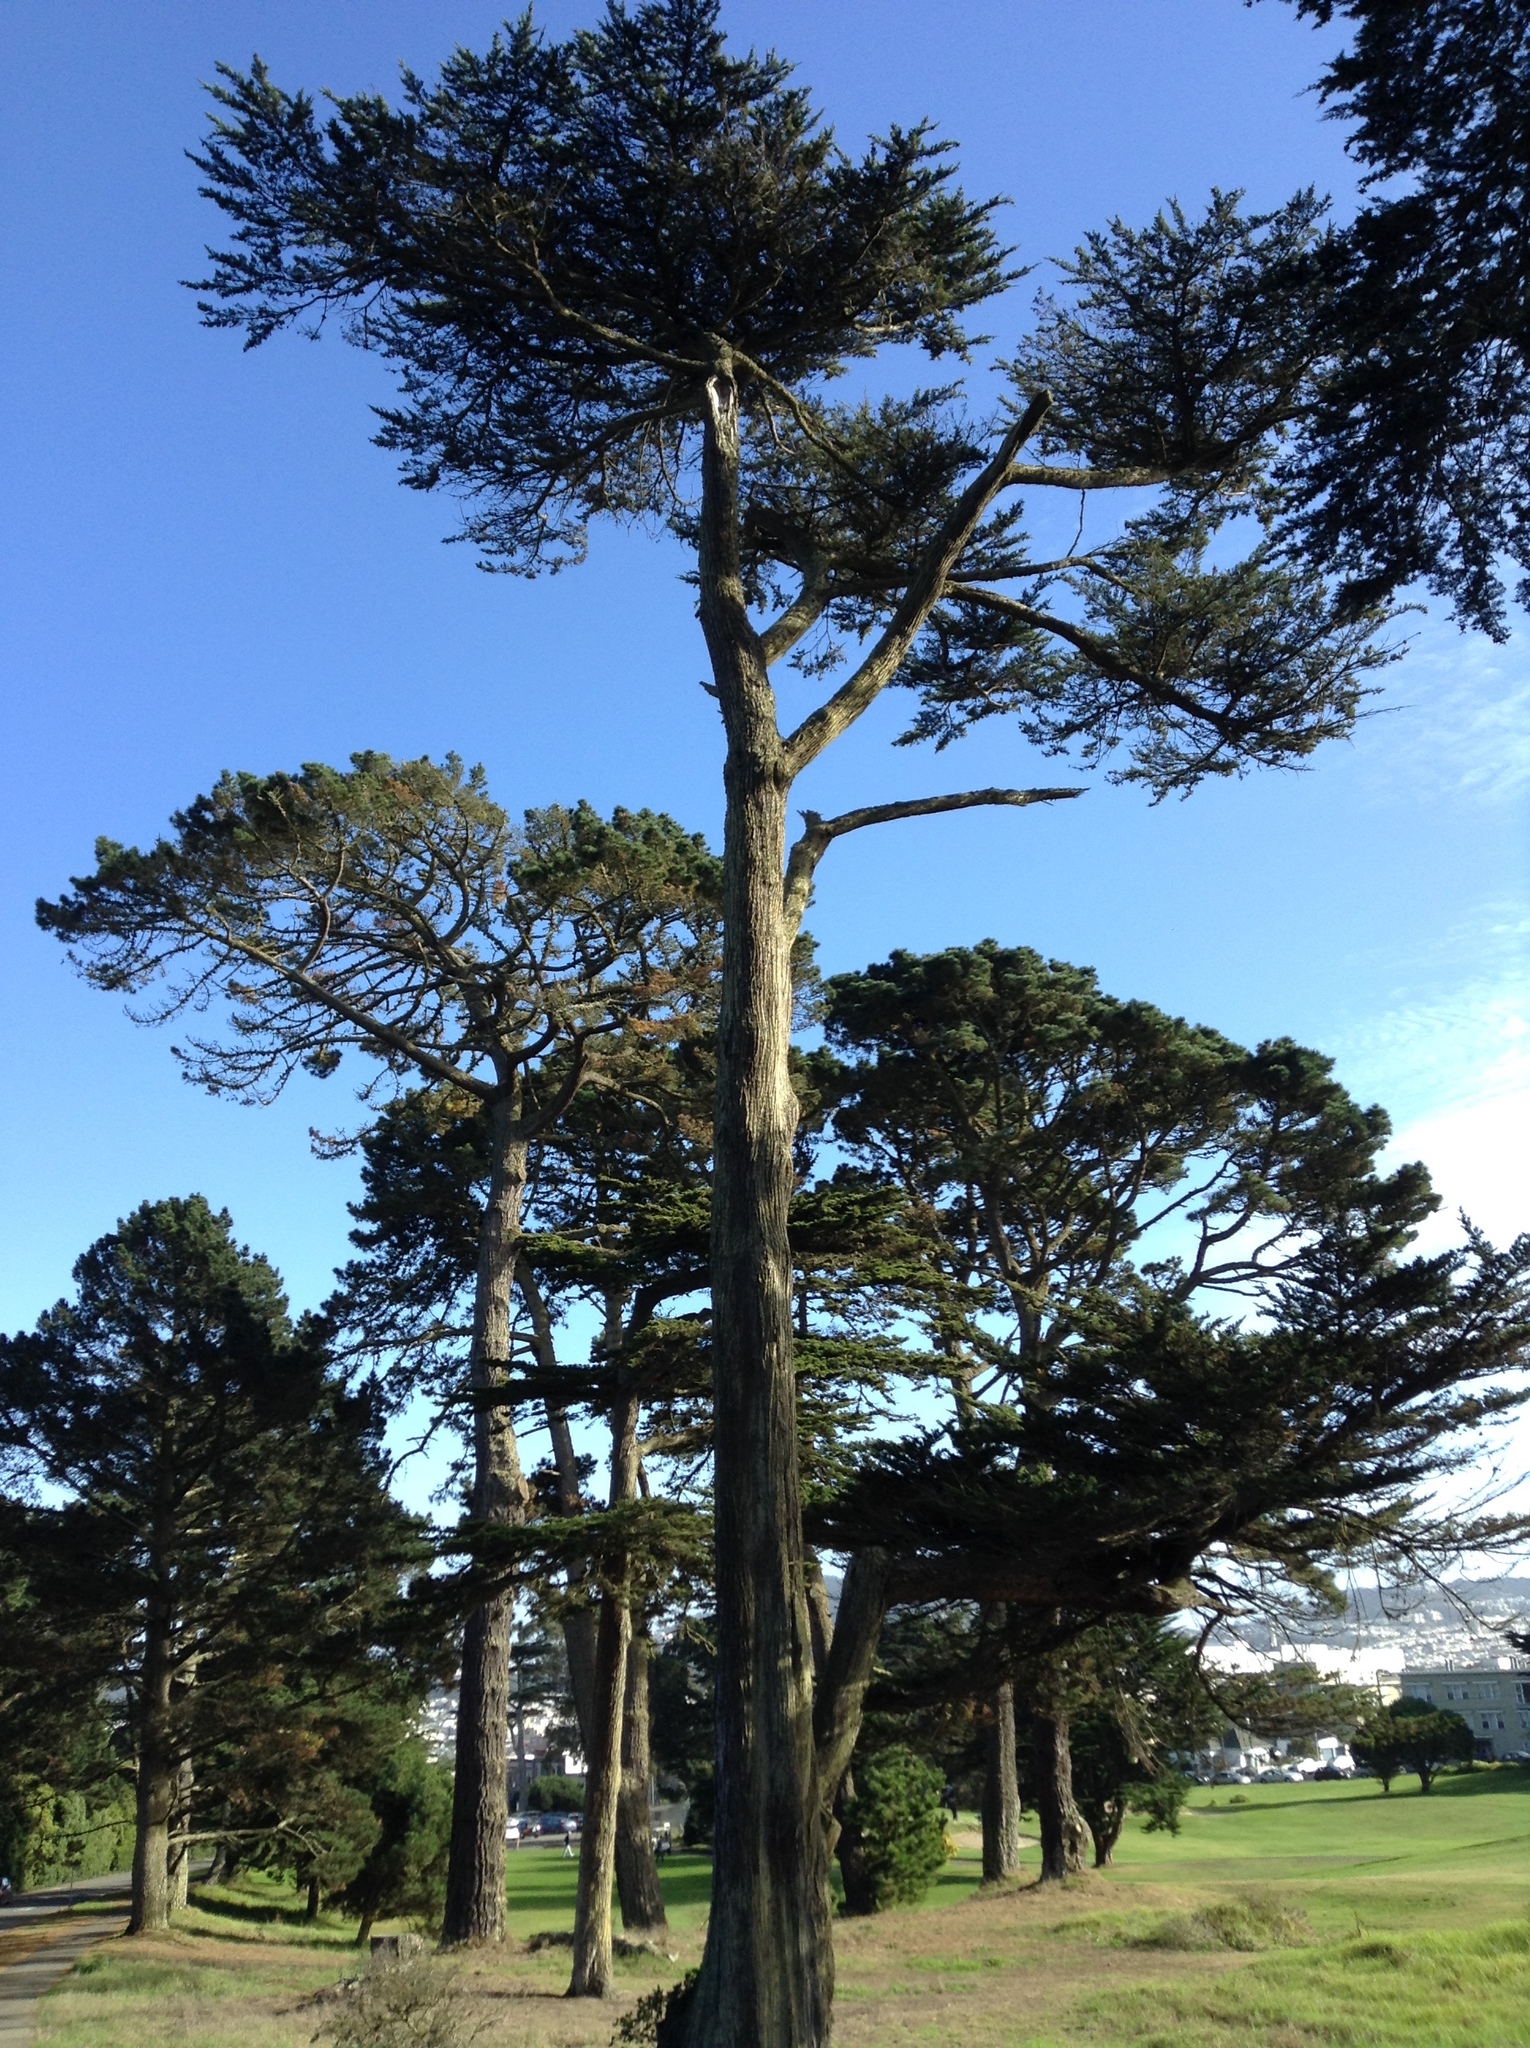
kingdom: Plantae
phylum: Tracheophyta
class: Pinopsida
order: Pinales
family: Cupressaceae
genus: Cupressus
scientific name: Cupressus macrocarpa
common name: Monterey cypress
